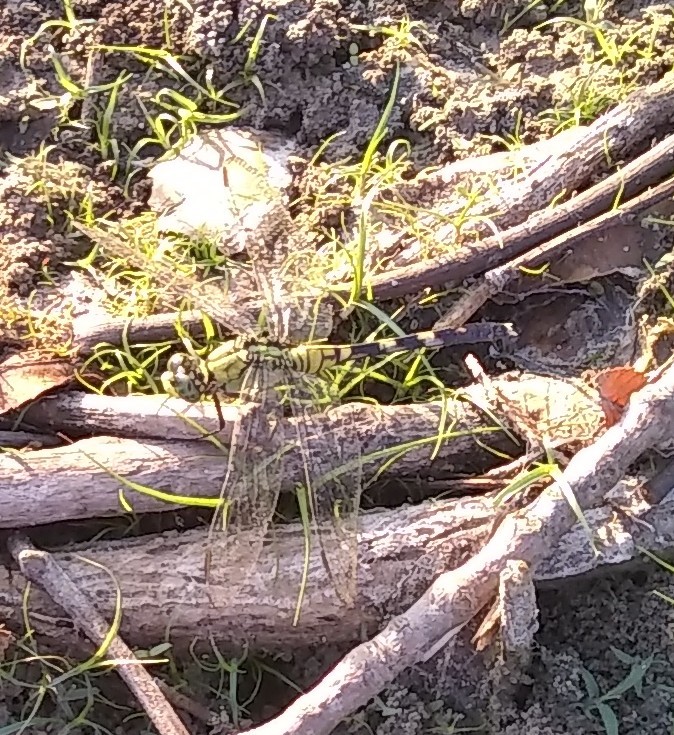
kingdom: Animalia
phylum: Arthropoda
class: Insecta
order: Odonata
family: Libellulidae
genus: Erythemis
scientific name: Erythemis simplicicollis
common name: Eastern pondhawk
